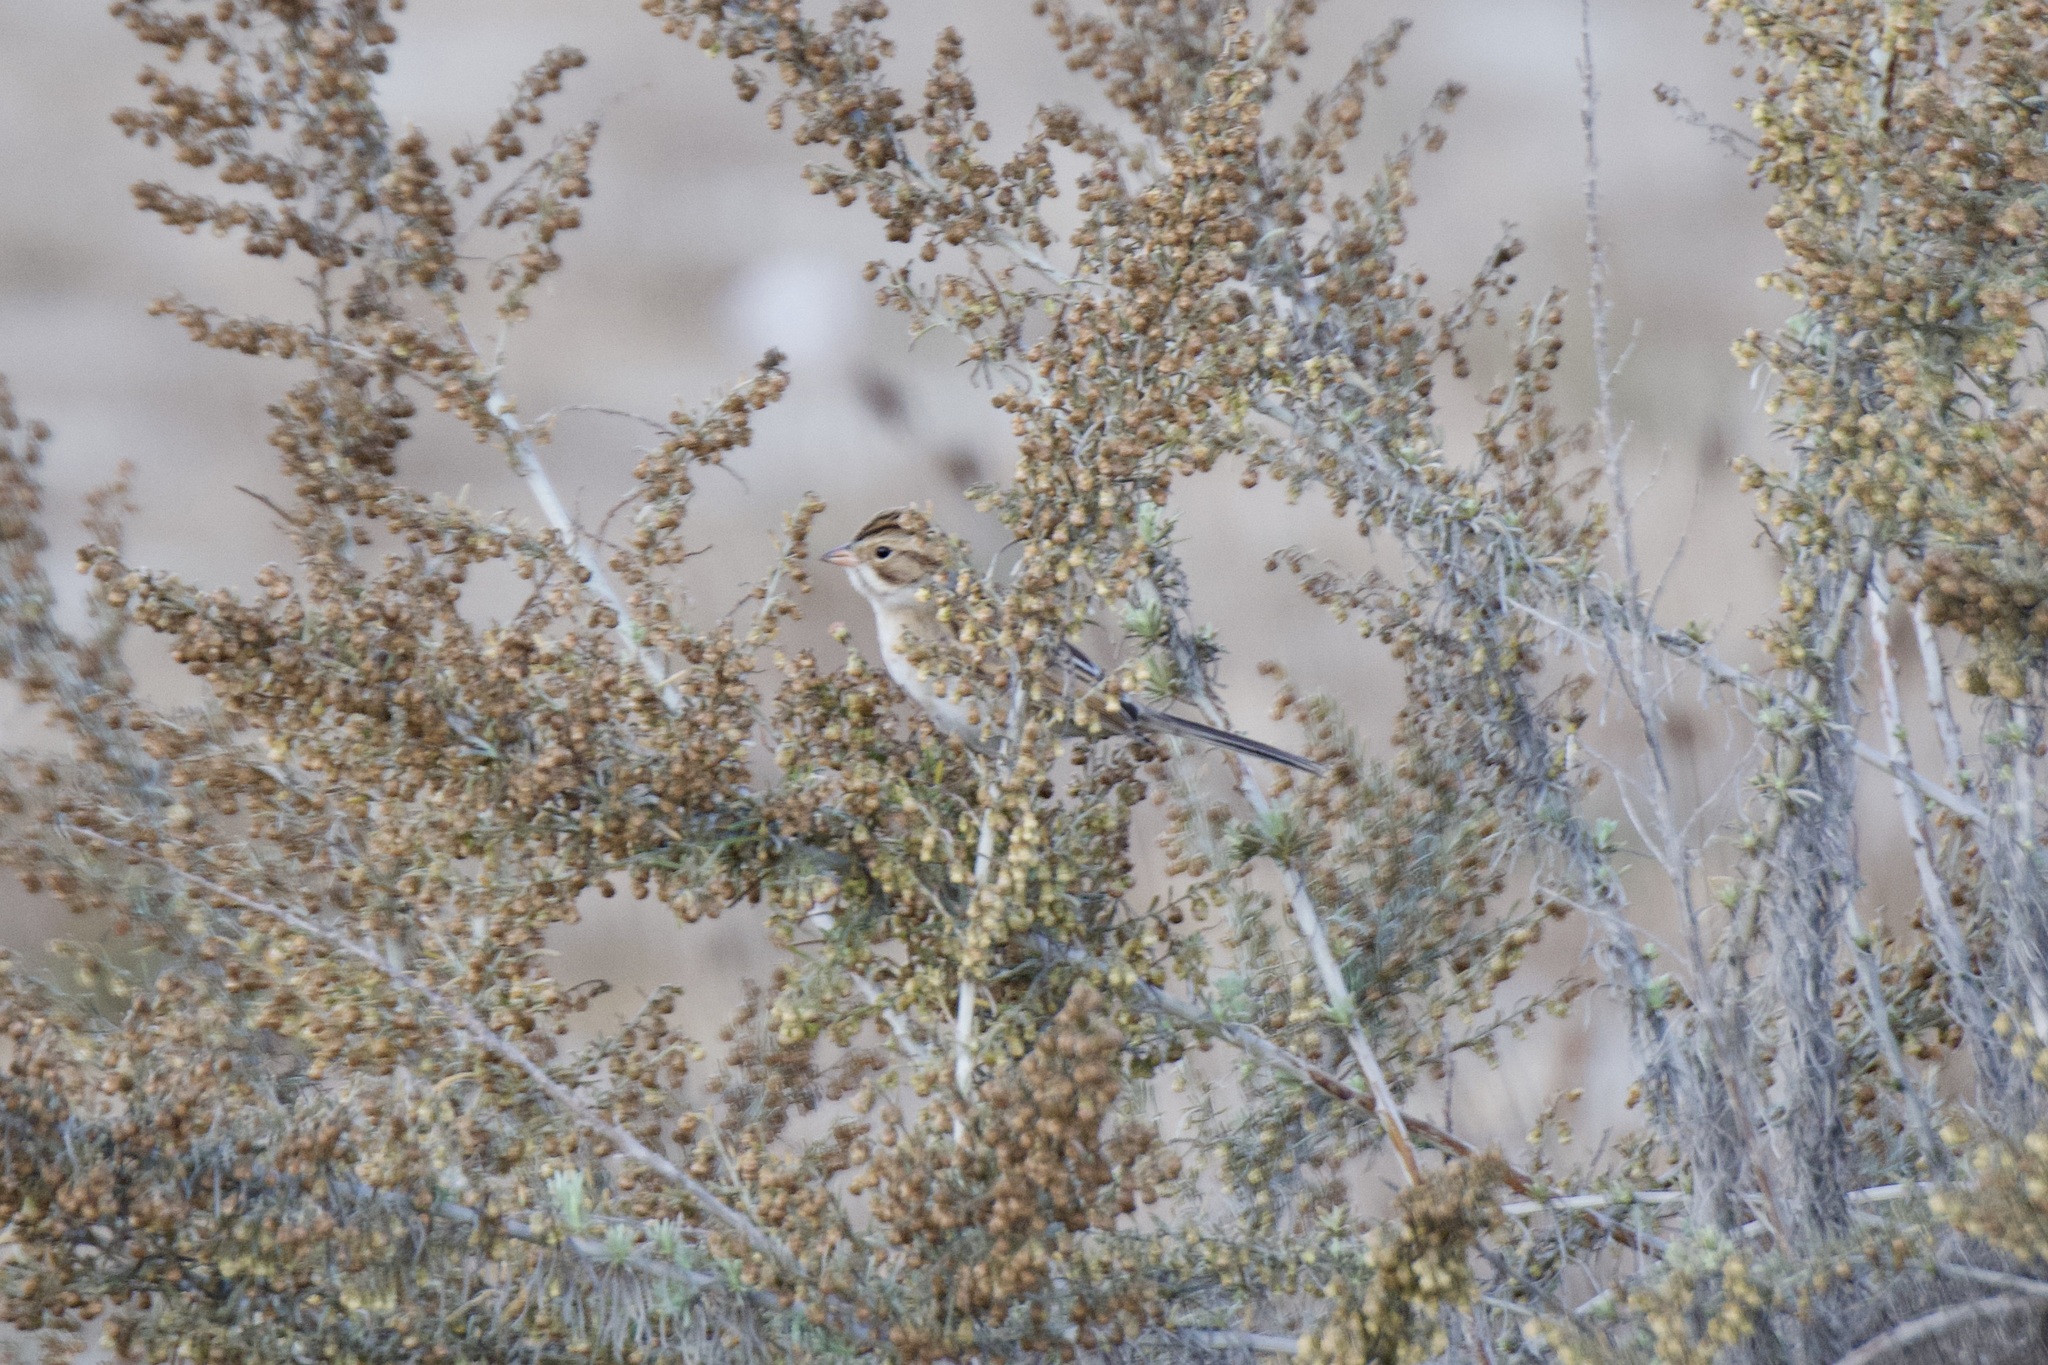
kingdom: Animalia
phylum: Chordata
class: Aves
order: Passeriformes
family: Passerellidae
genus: Spizella
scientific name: Spizella pallida
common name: Clay-colored sparrow
